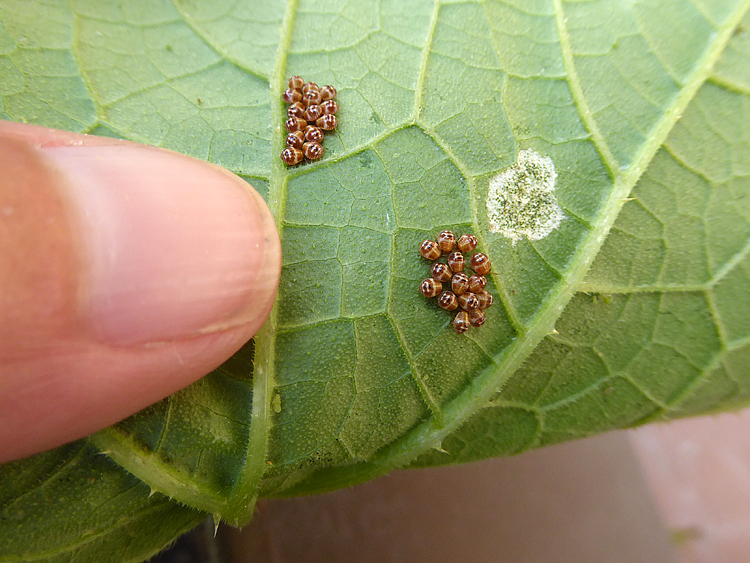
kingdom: Animalia
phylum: Arthropoda
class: Insecta
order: Hemiptera
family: Pentatomidae
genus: Palomena
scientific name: Palomena prasina
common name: Green shieldbug
